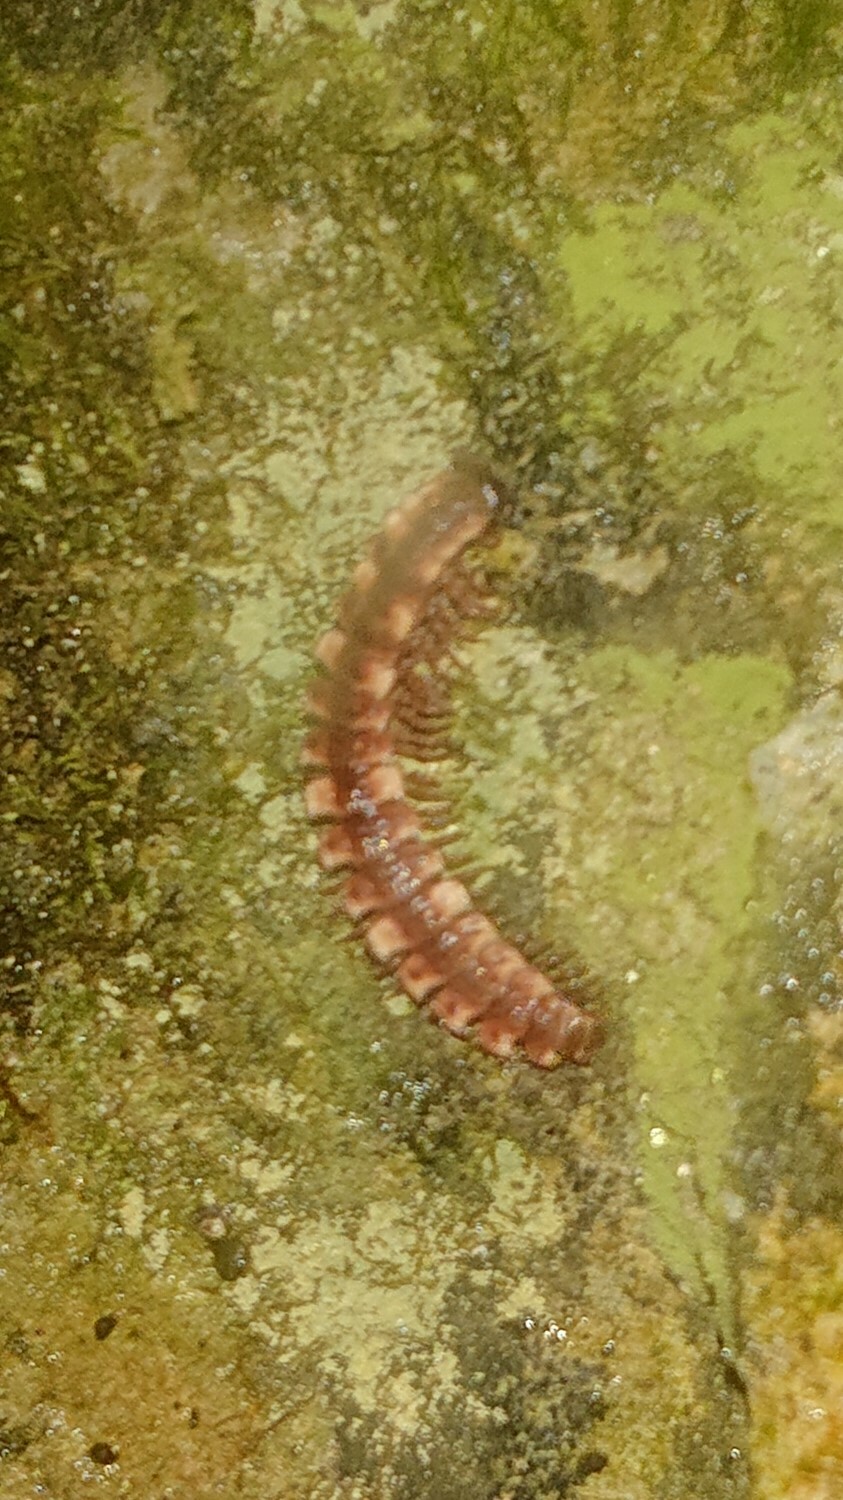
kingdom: Animalia
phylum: Arthropoda
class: Diplopoda
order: Polydesmida
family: Polydesmidae
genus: Polydesmus
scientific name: Polydesmus complanatus
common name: Flat-backed millipede
